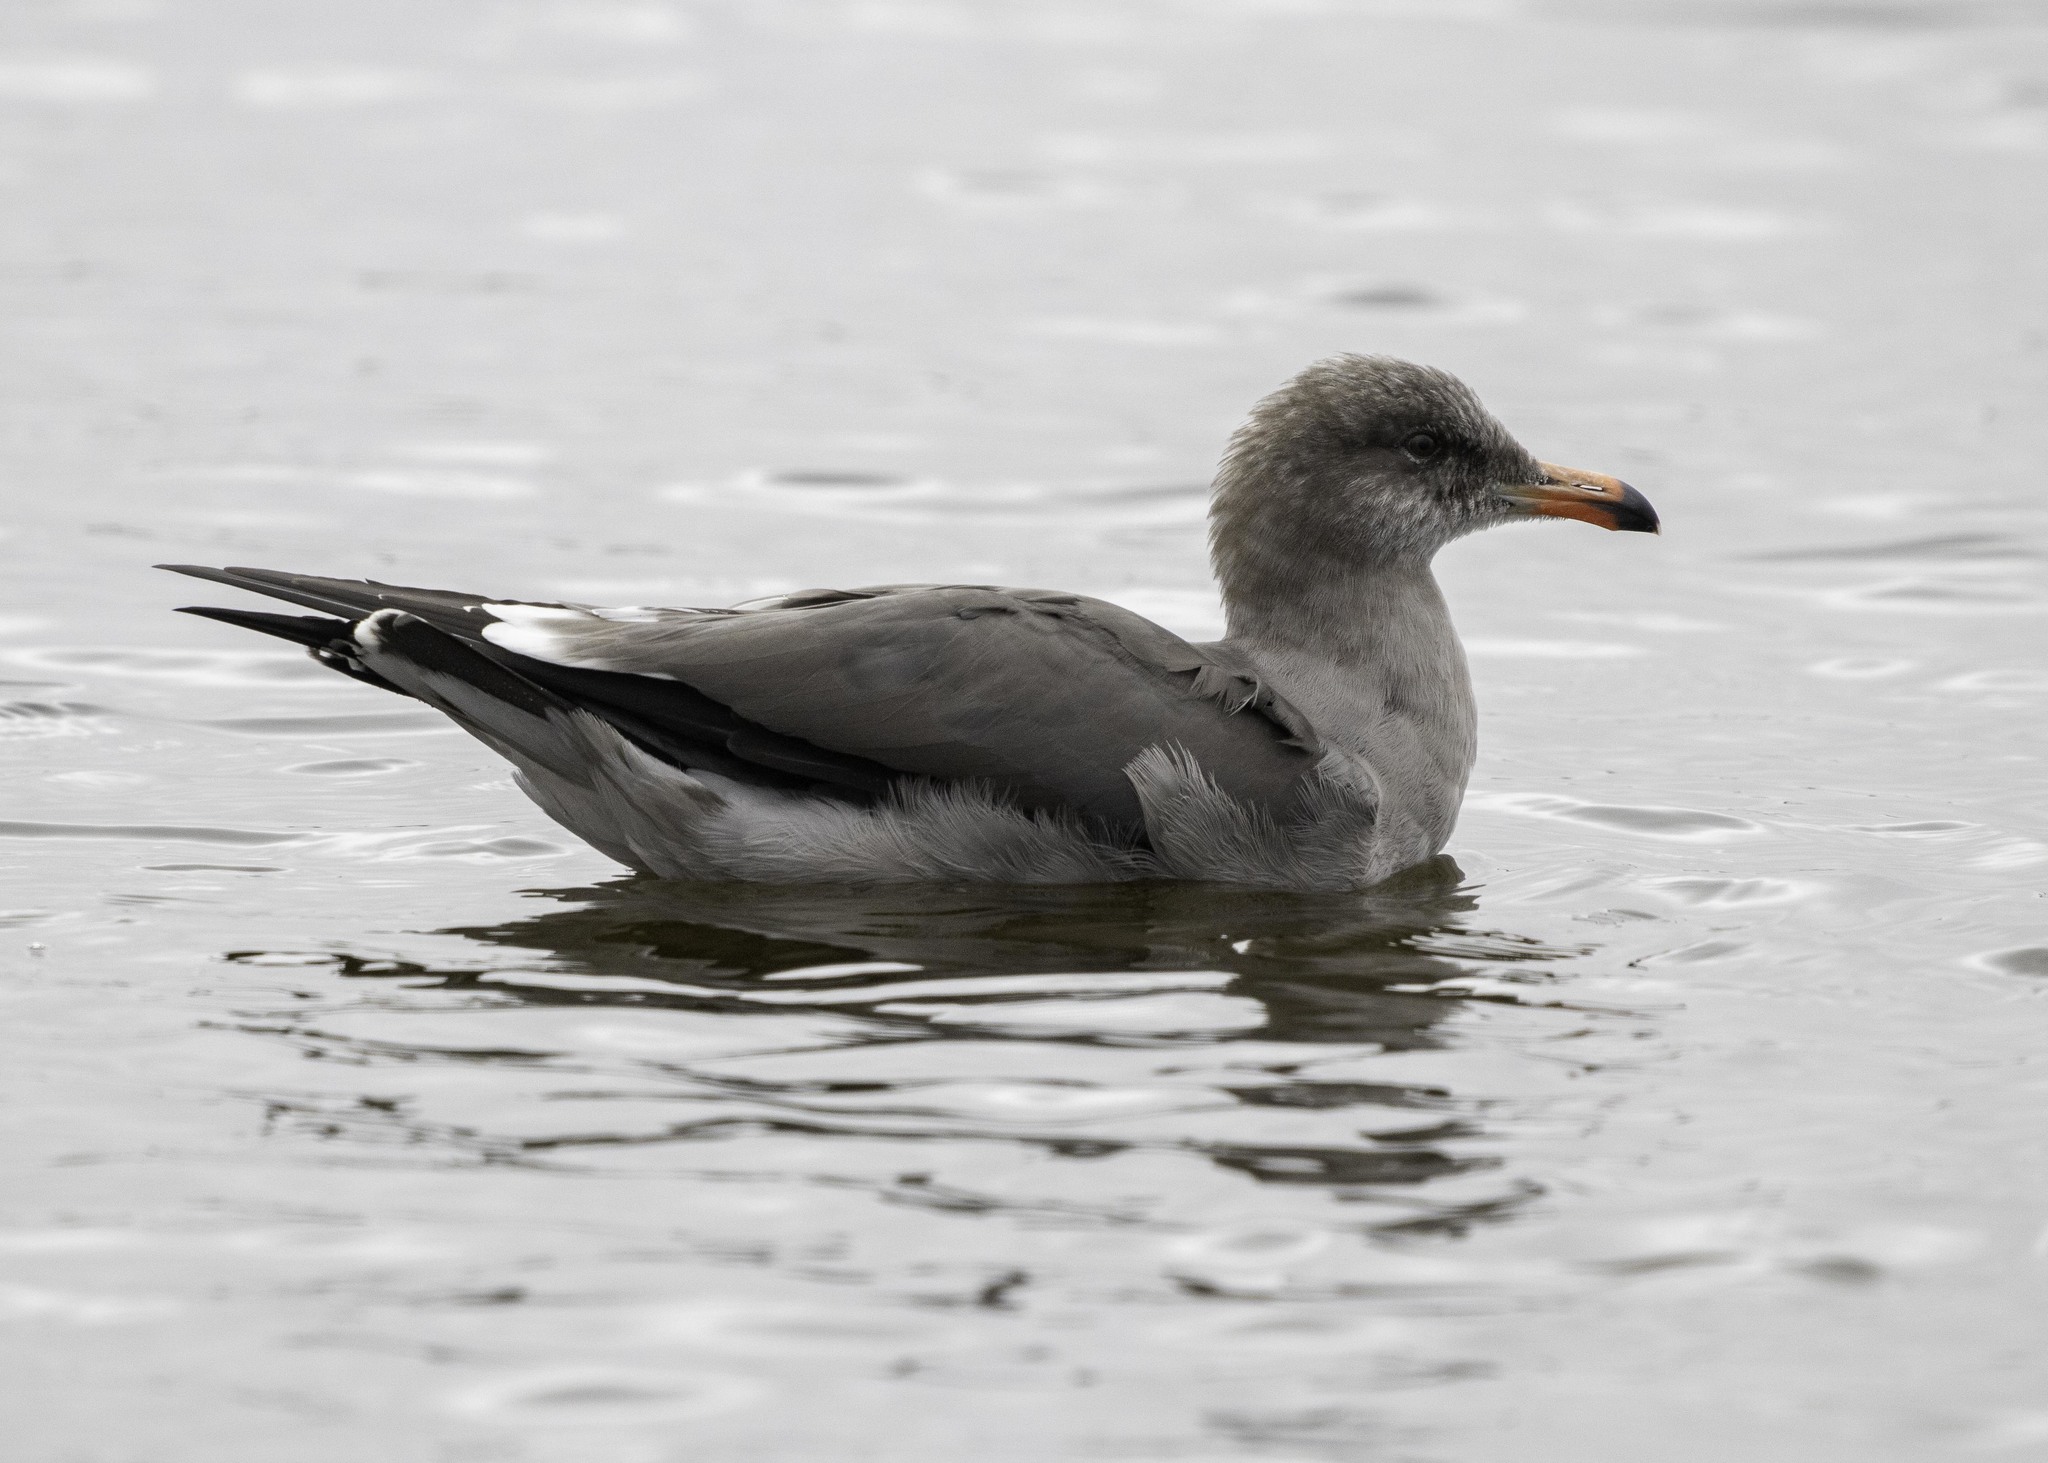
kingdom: Animalia
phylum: Chordata
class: Aves
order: Charadriiformes
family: Laridae
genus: Larus
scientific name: Larus heermanni
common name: Heermann's gull
